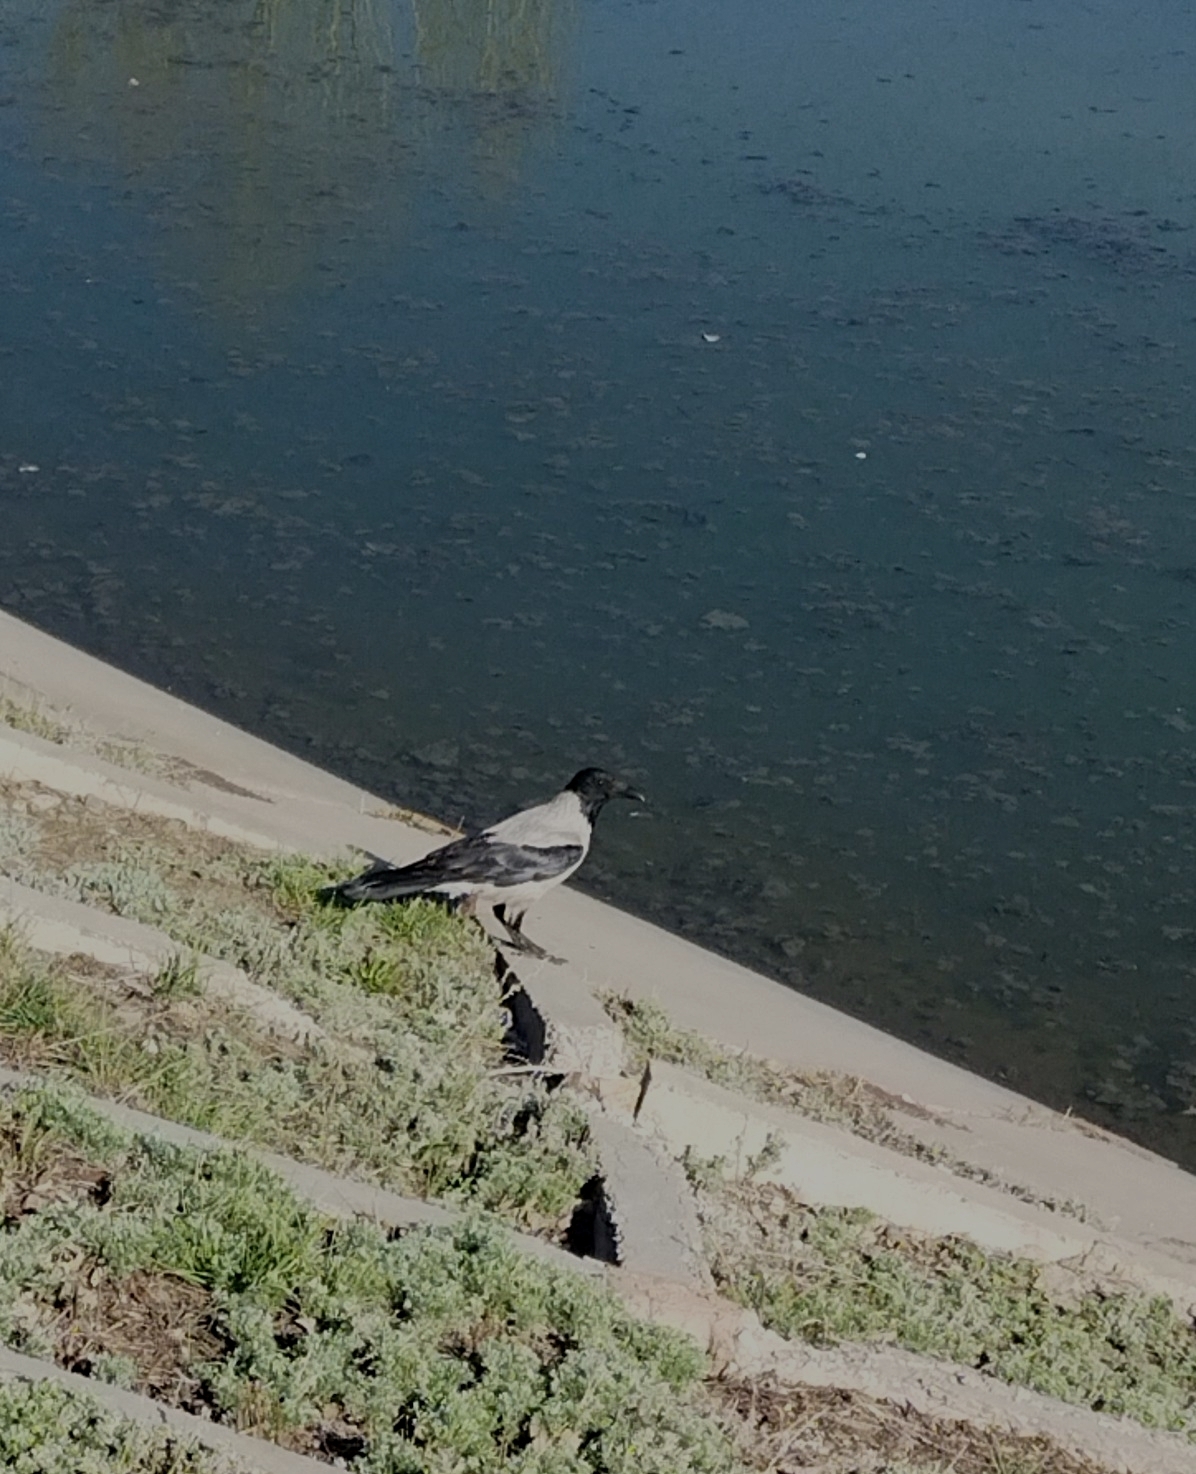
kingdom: Animalia
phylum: Chordata
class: Aves
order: Passeriformes
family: Corvidae
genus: Corvus
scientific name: Corvus cornix
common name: Hooded crow
